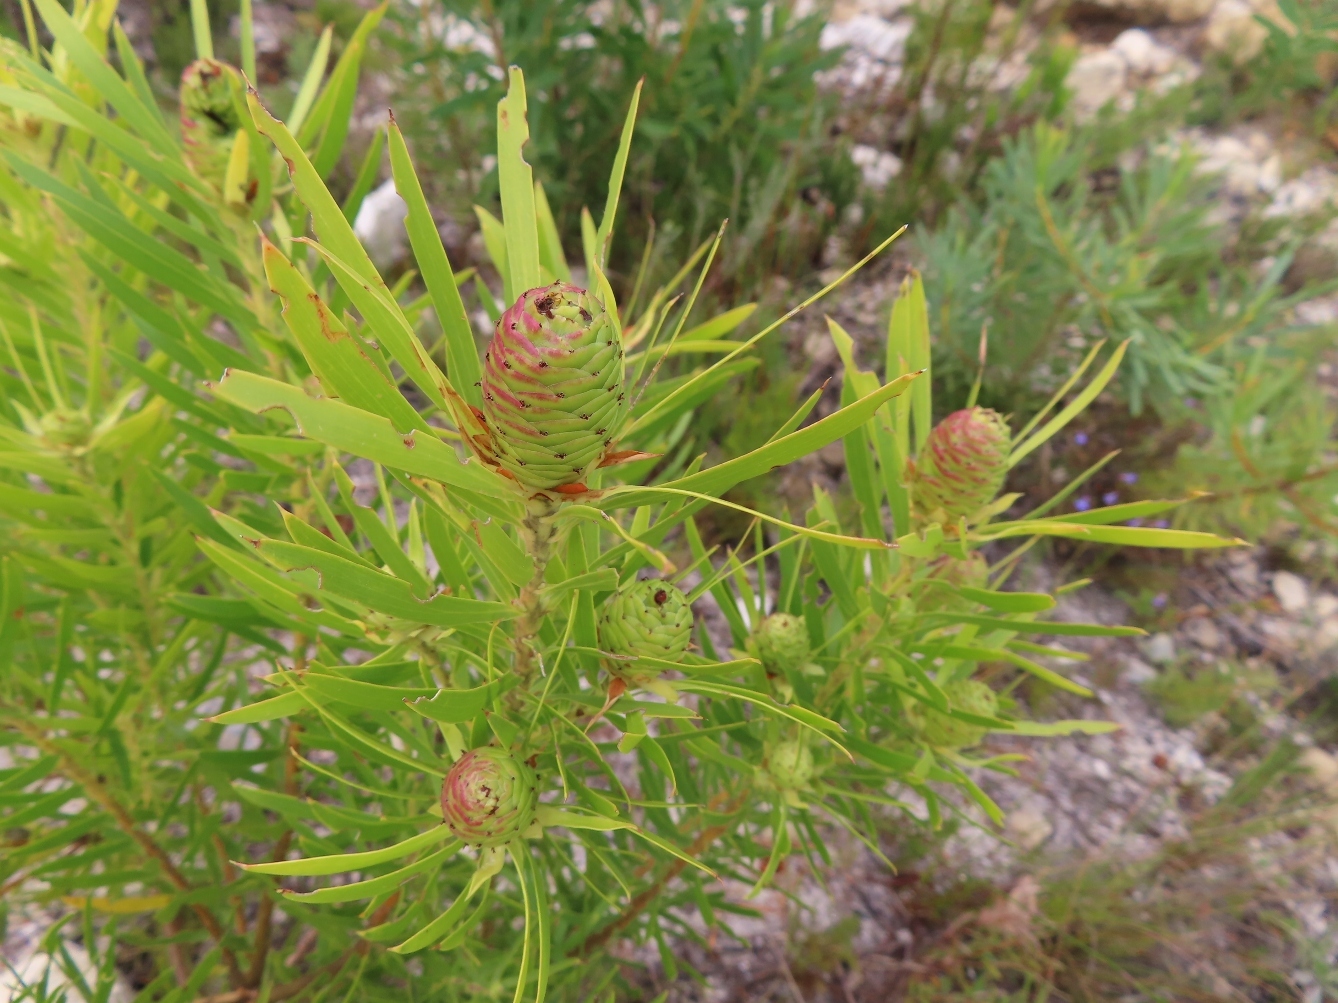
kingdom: Plantae
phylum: Tracheophyta
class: Magnoliopsida
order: Proteales
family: Proteaceae
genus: Leucadendron
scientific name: Leucadendron xanthoconus
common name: Sickle-leaf conebush
